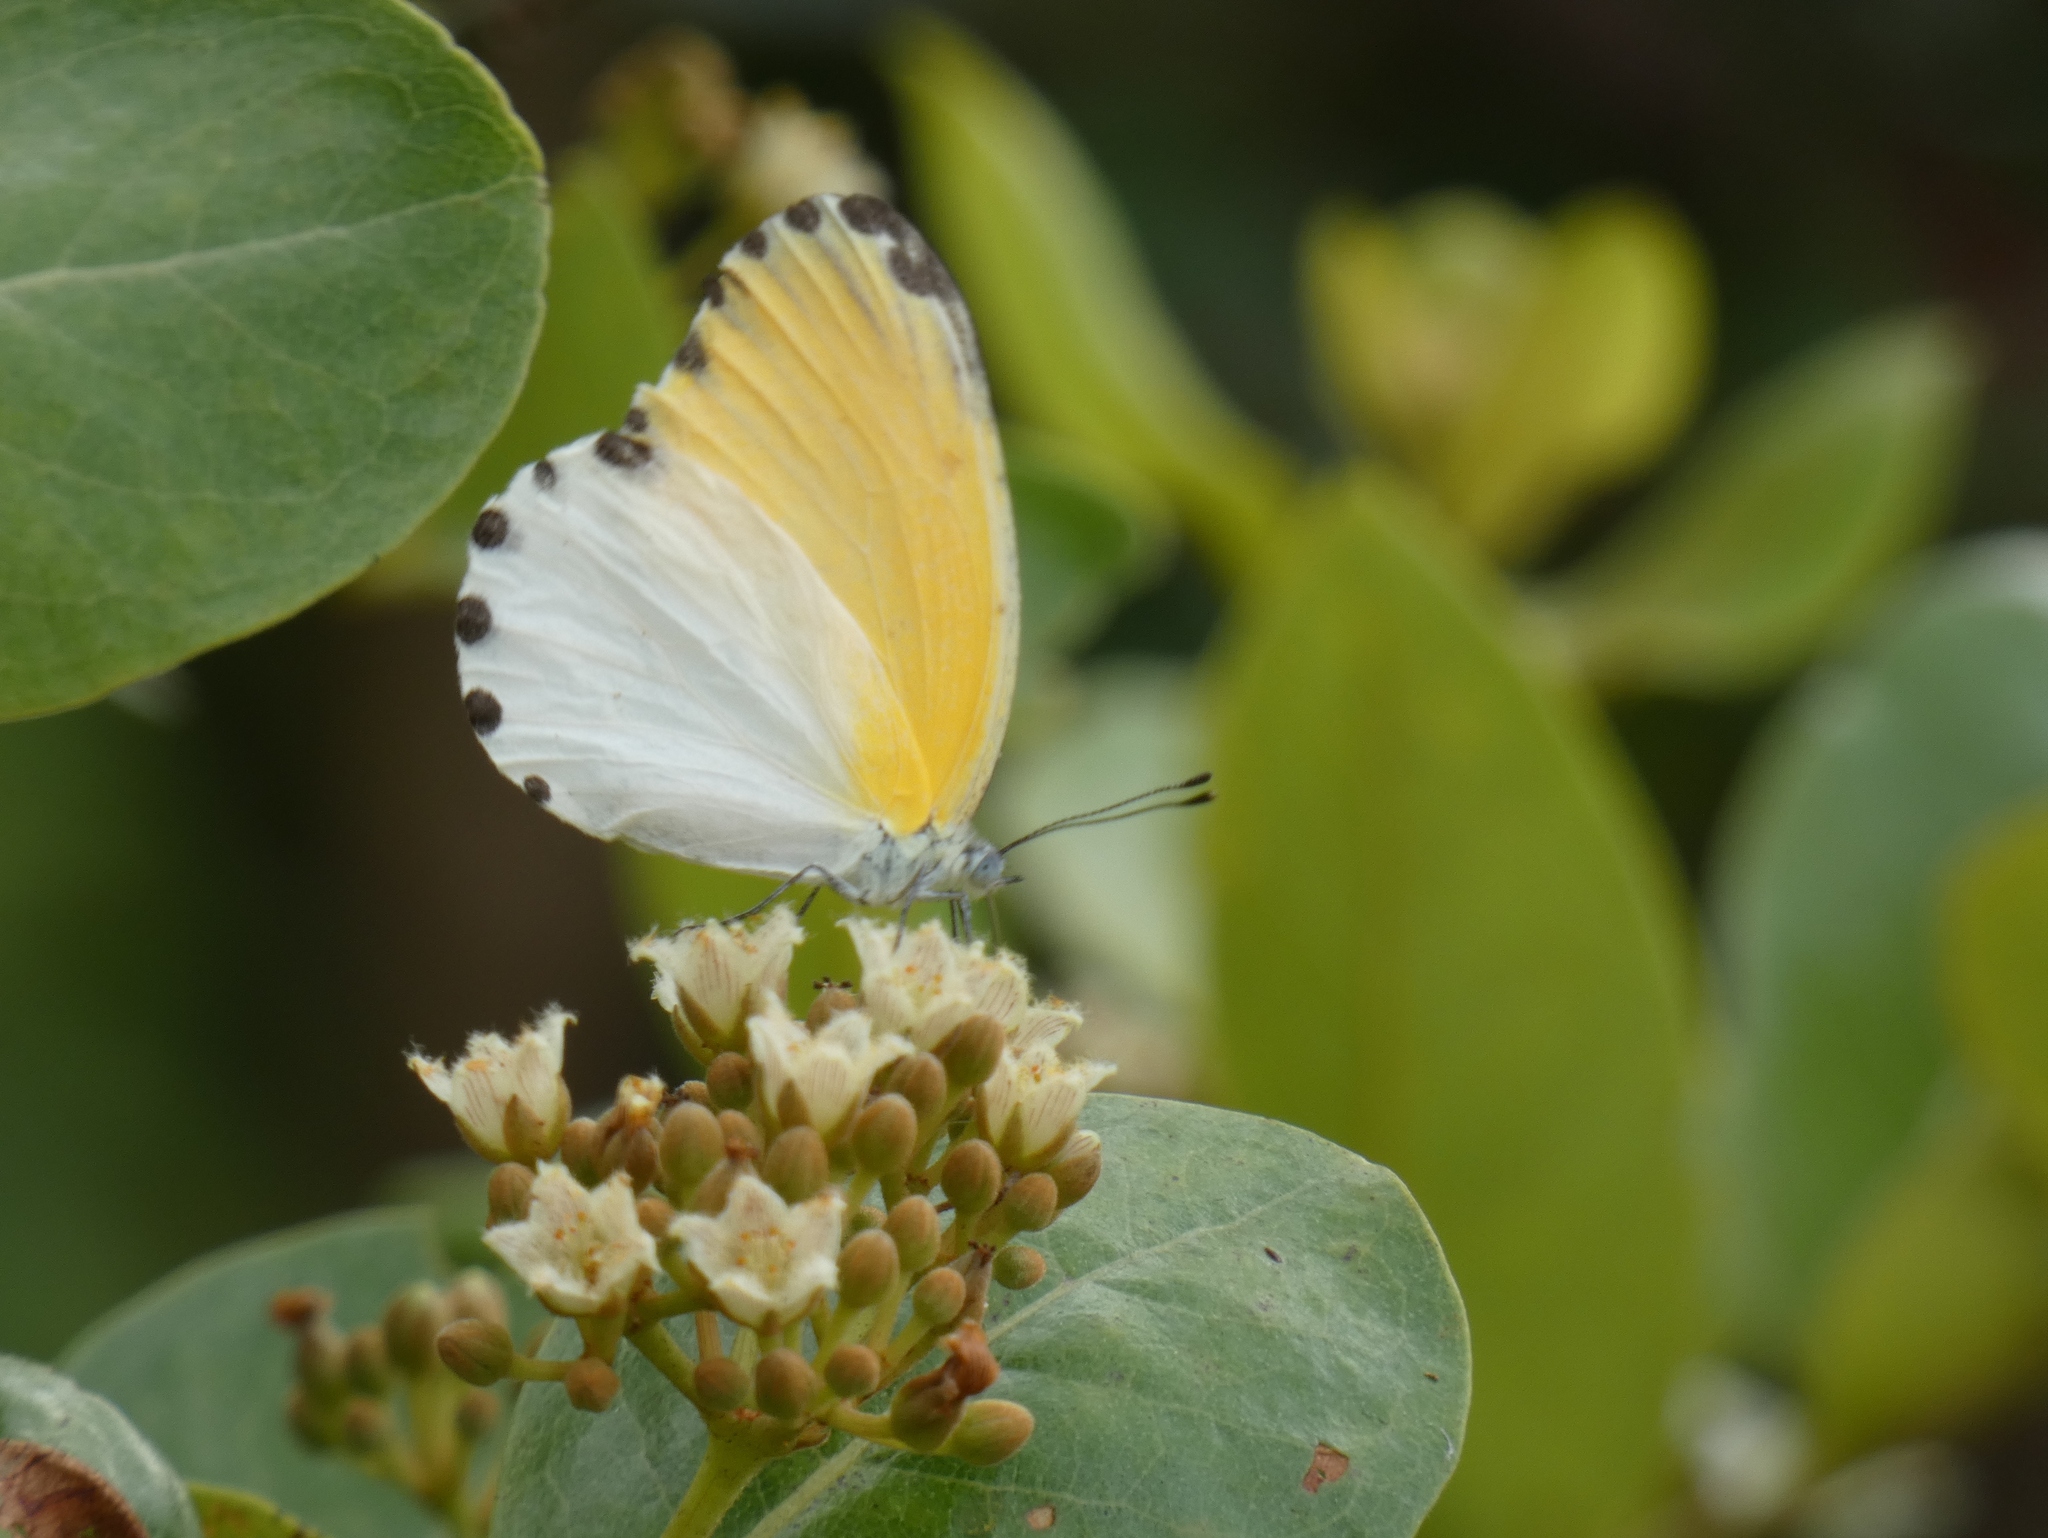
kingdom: Animalia
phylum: Arthropoda
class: Insecta
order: Lepidoptera
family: Pieridae
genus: Mylothris
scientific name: Mylothris rhodope
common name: Rhodope
